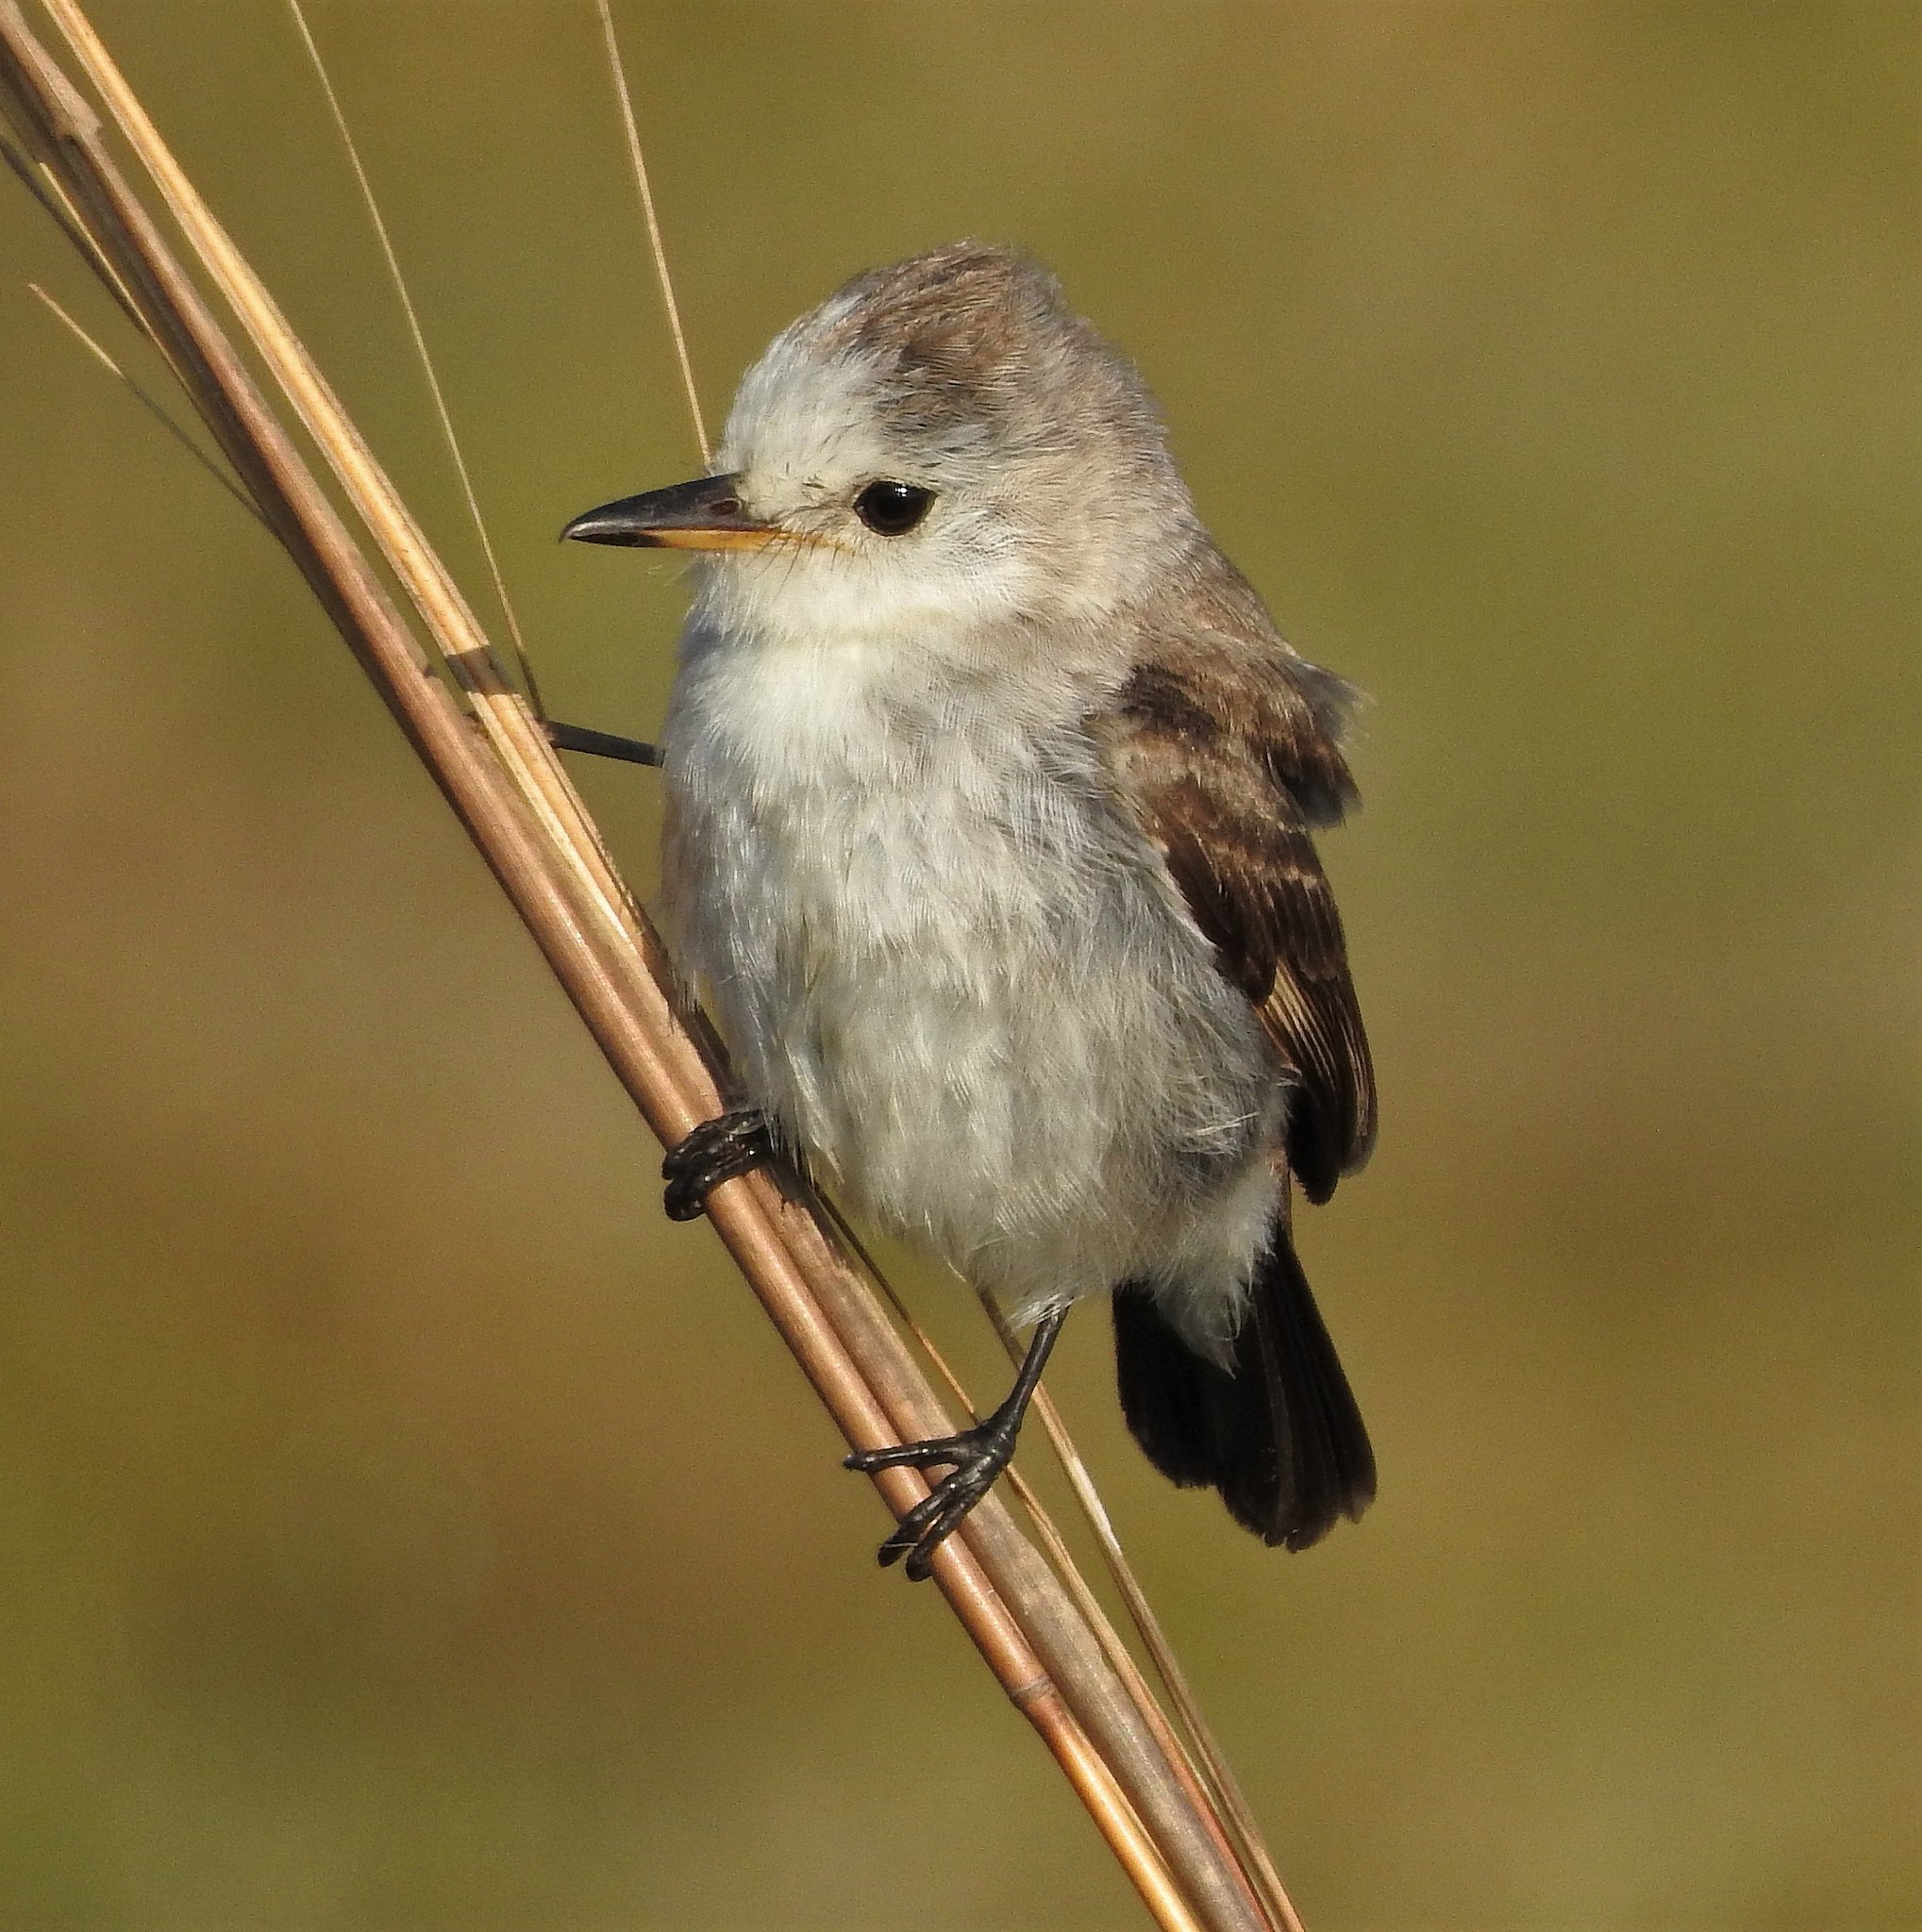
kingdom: Animalia
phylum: Chordata
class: Aves
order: Passeriformes
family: Tyrannidae
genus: Arundinicola
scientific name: Arundinicola leucocephala
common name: White-headed marsh tyrant
